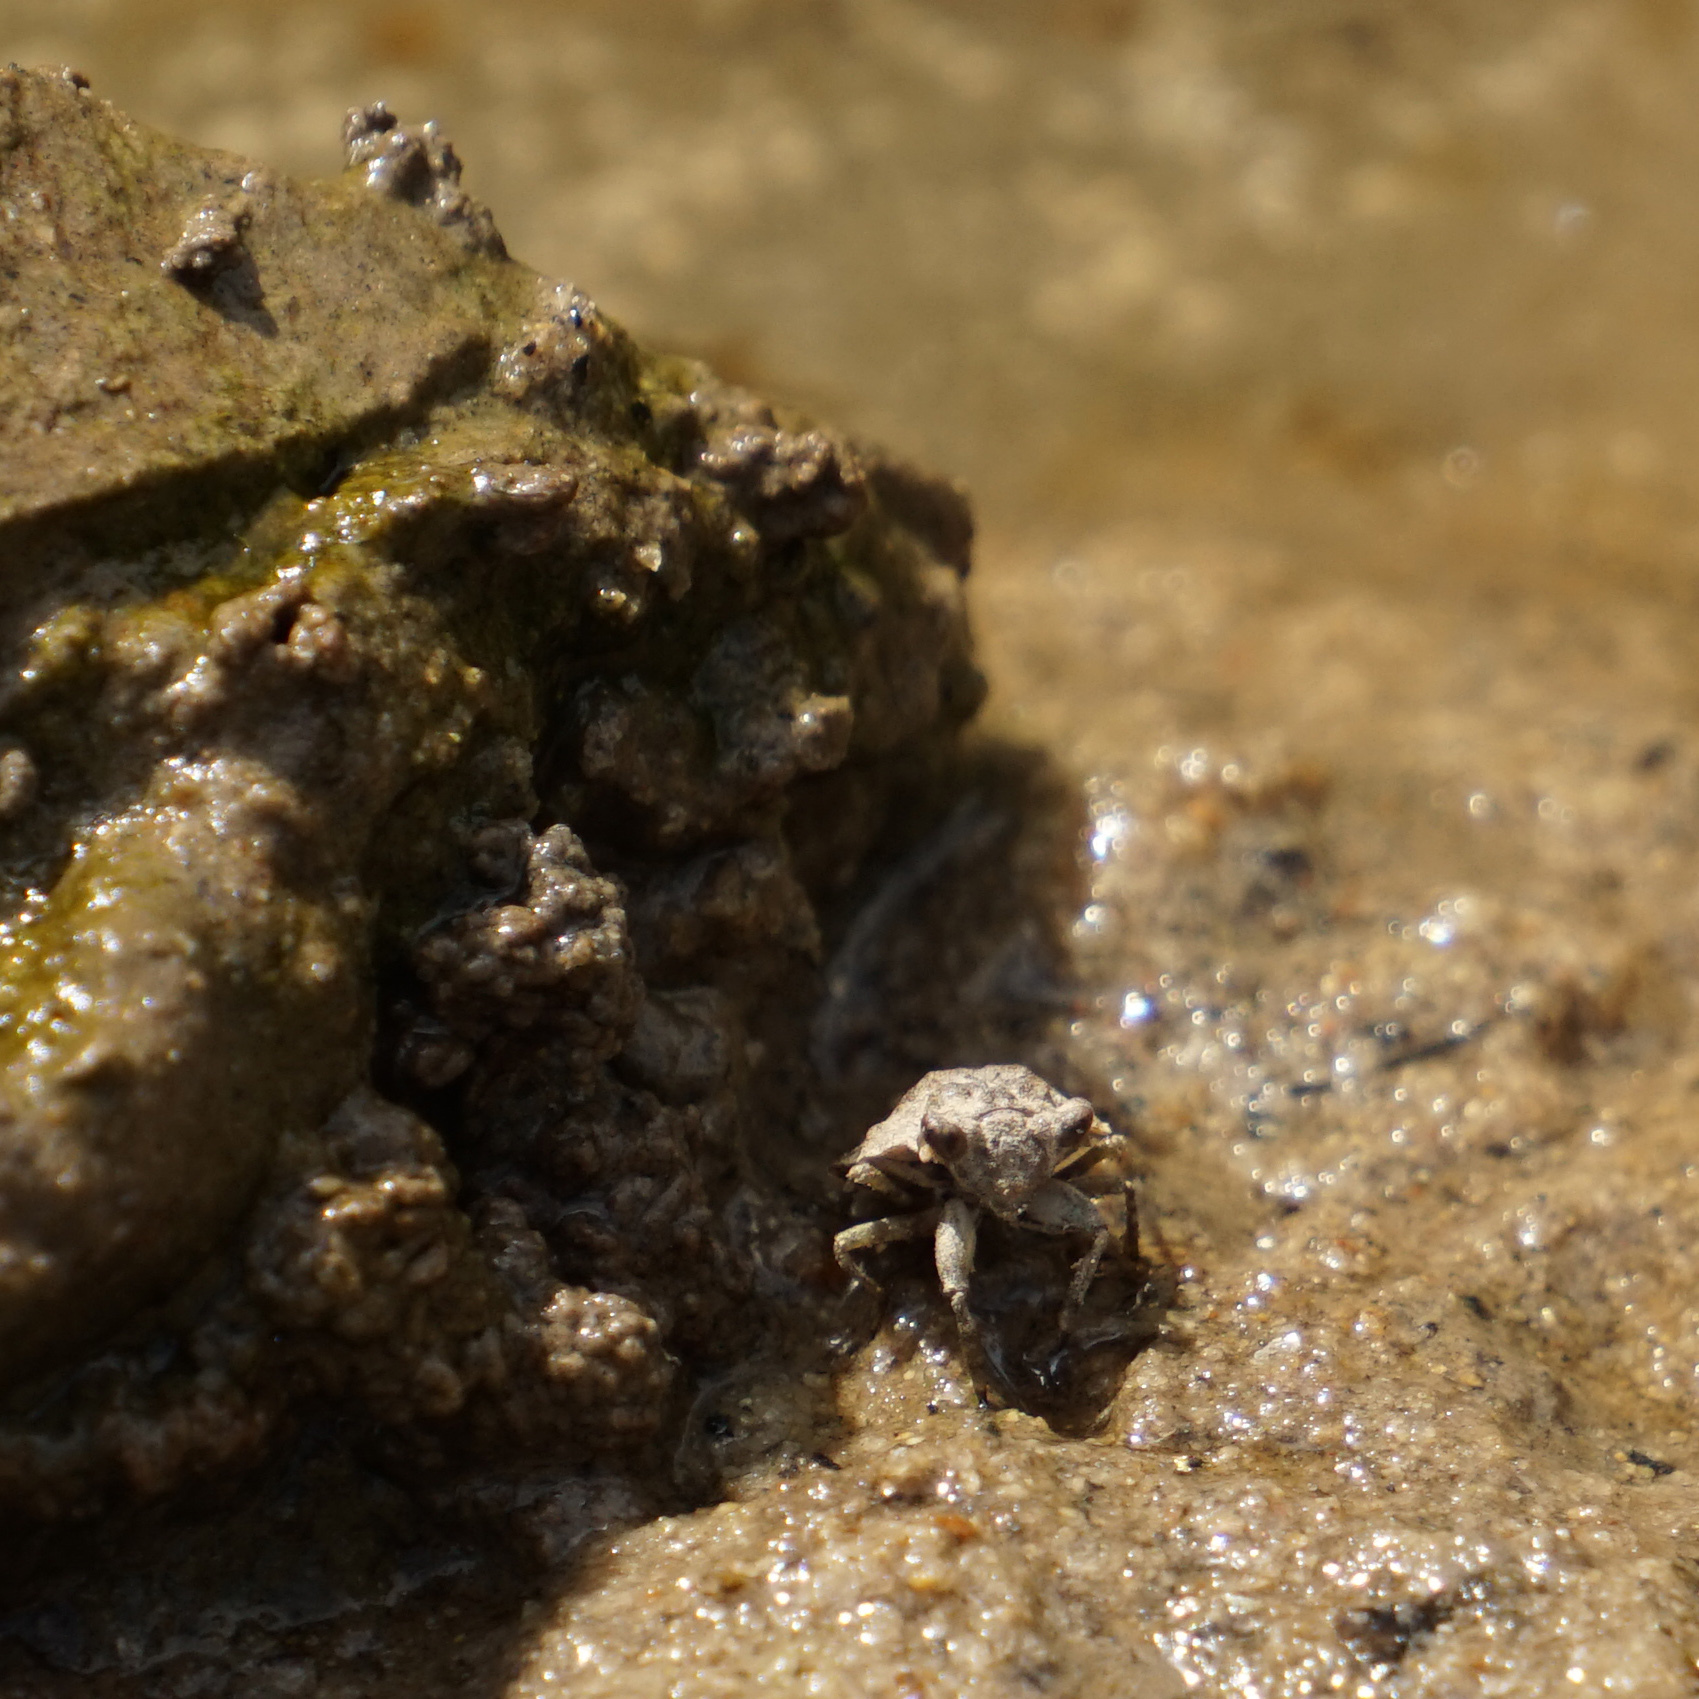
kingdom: Animalia
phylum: Arthropoda
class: Insecta
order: Hemiptera
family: Gelastocoridae
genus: Gelastocoris
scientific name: Gelastocoris oculatus
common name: Toad bug
